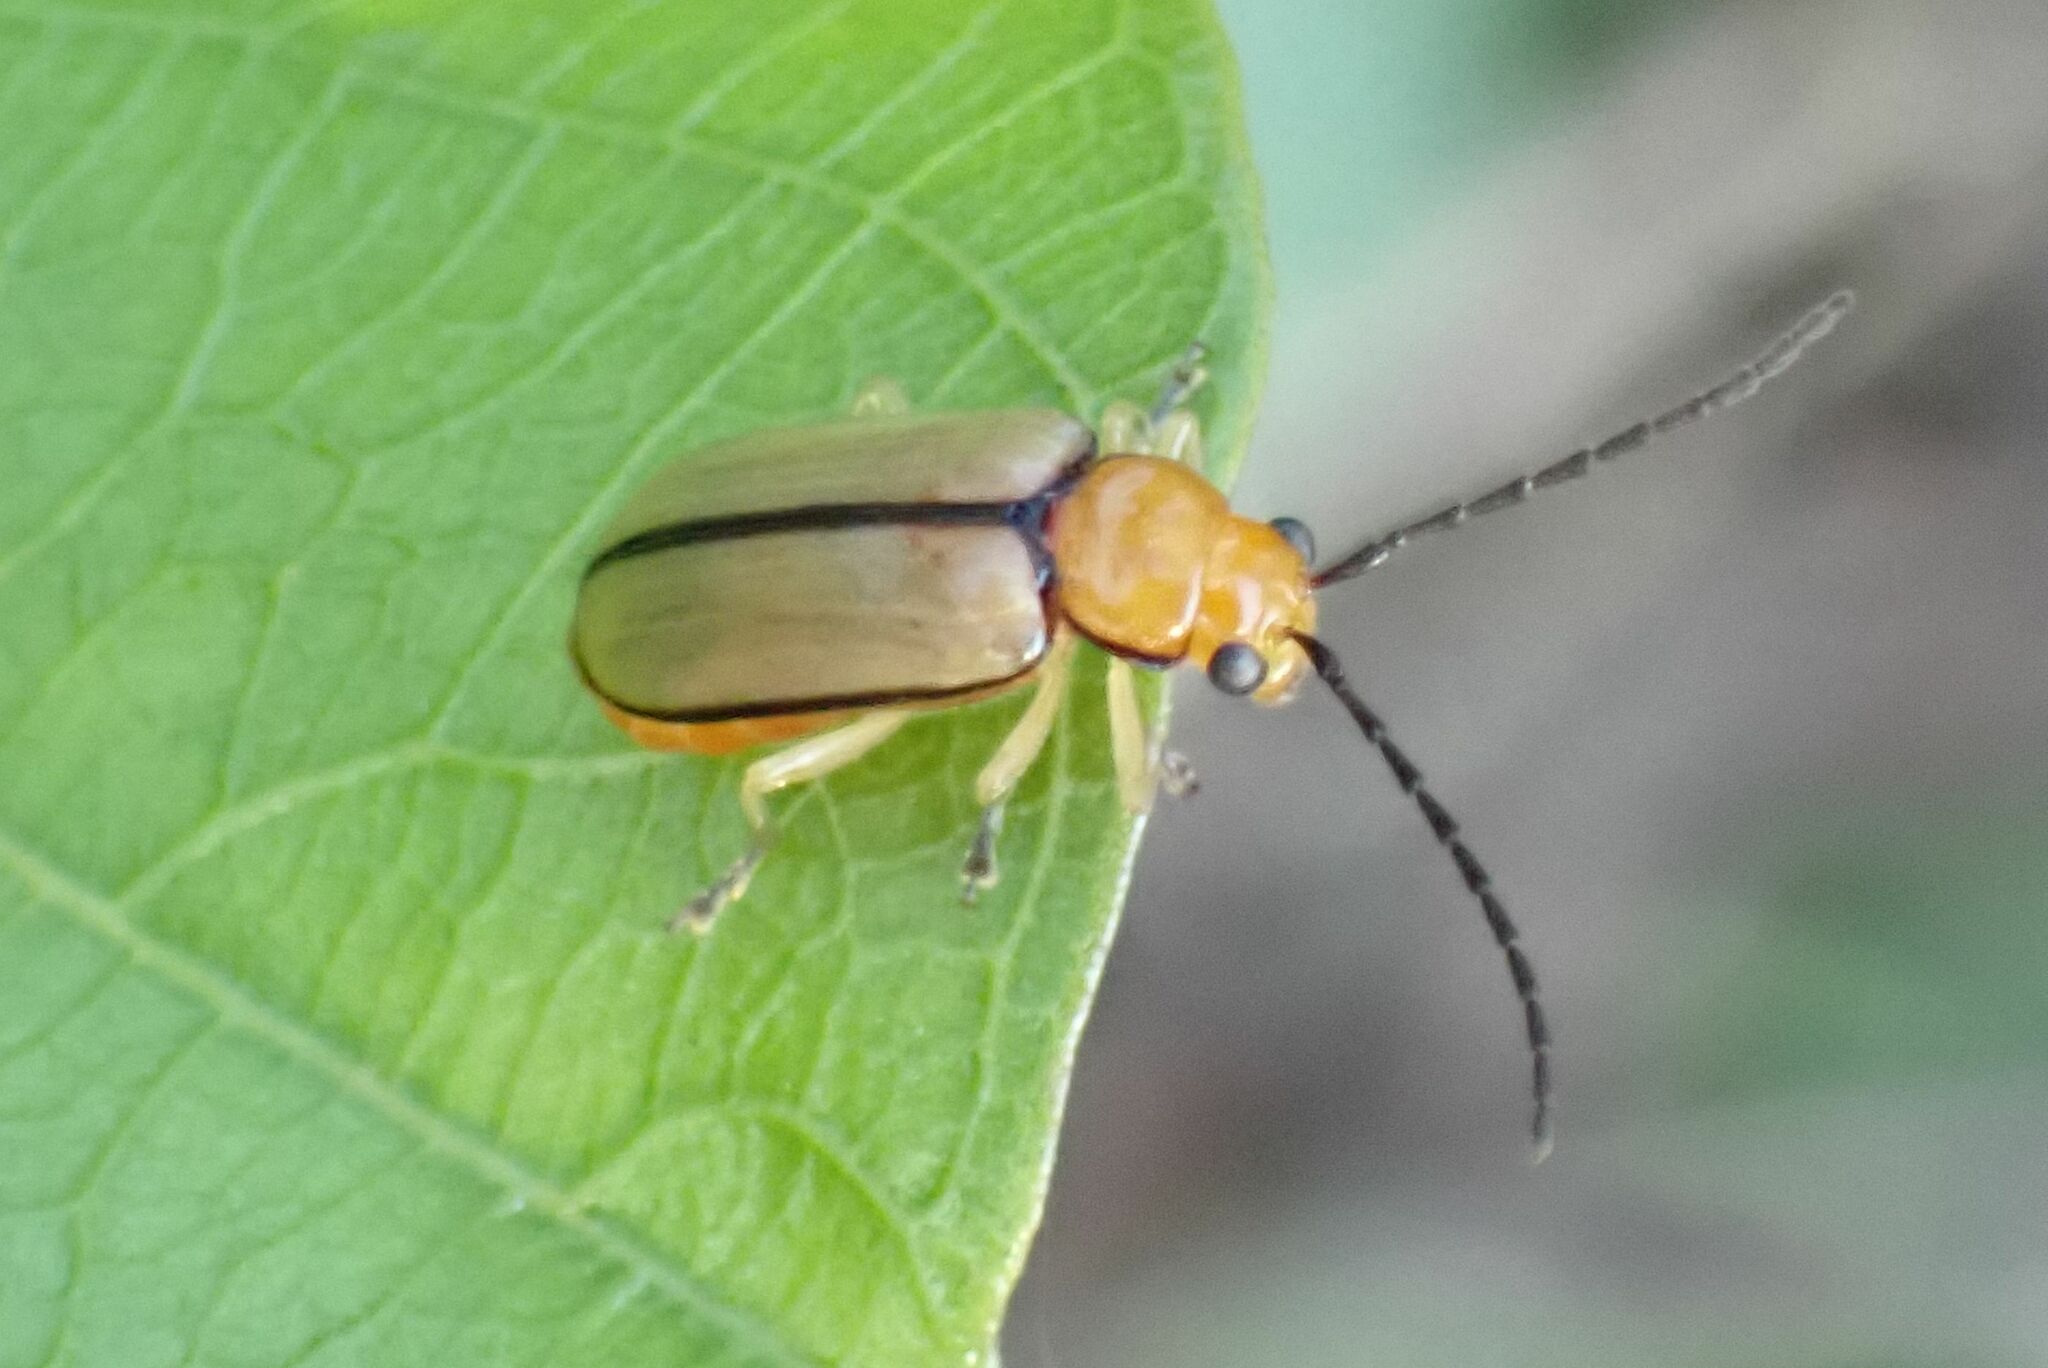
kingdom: Animalia
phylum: Arthropoda
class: Insecta
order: Coleoptera
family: Chrysomelidae
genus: Palpoxena
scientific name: Palpoxena
